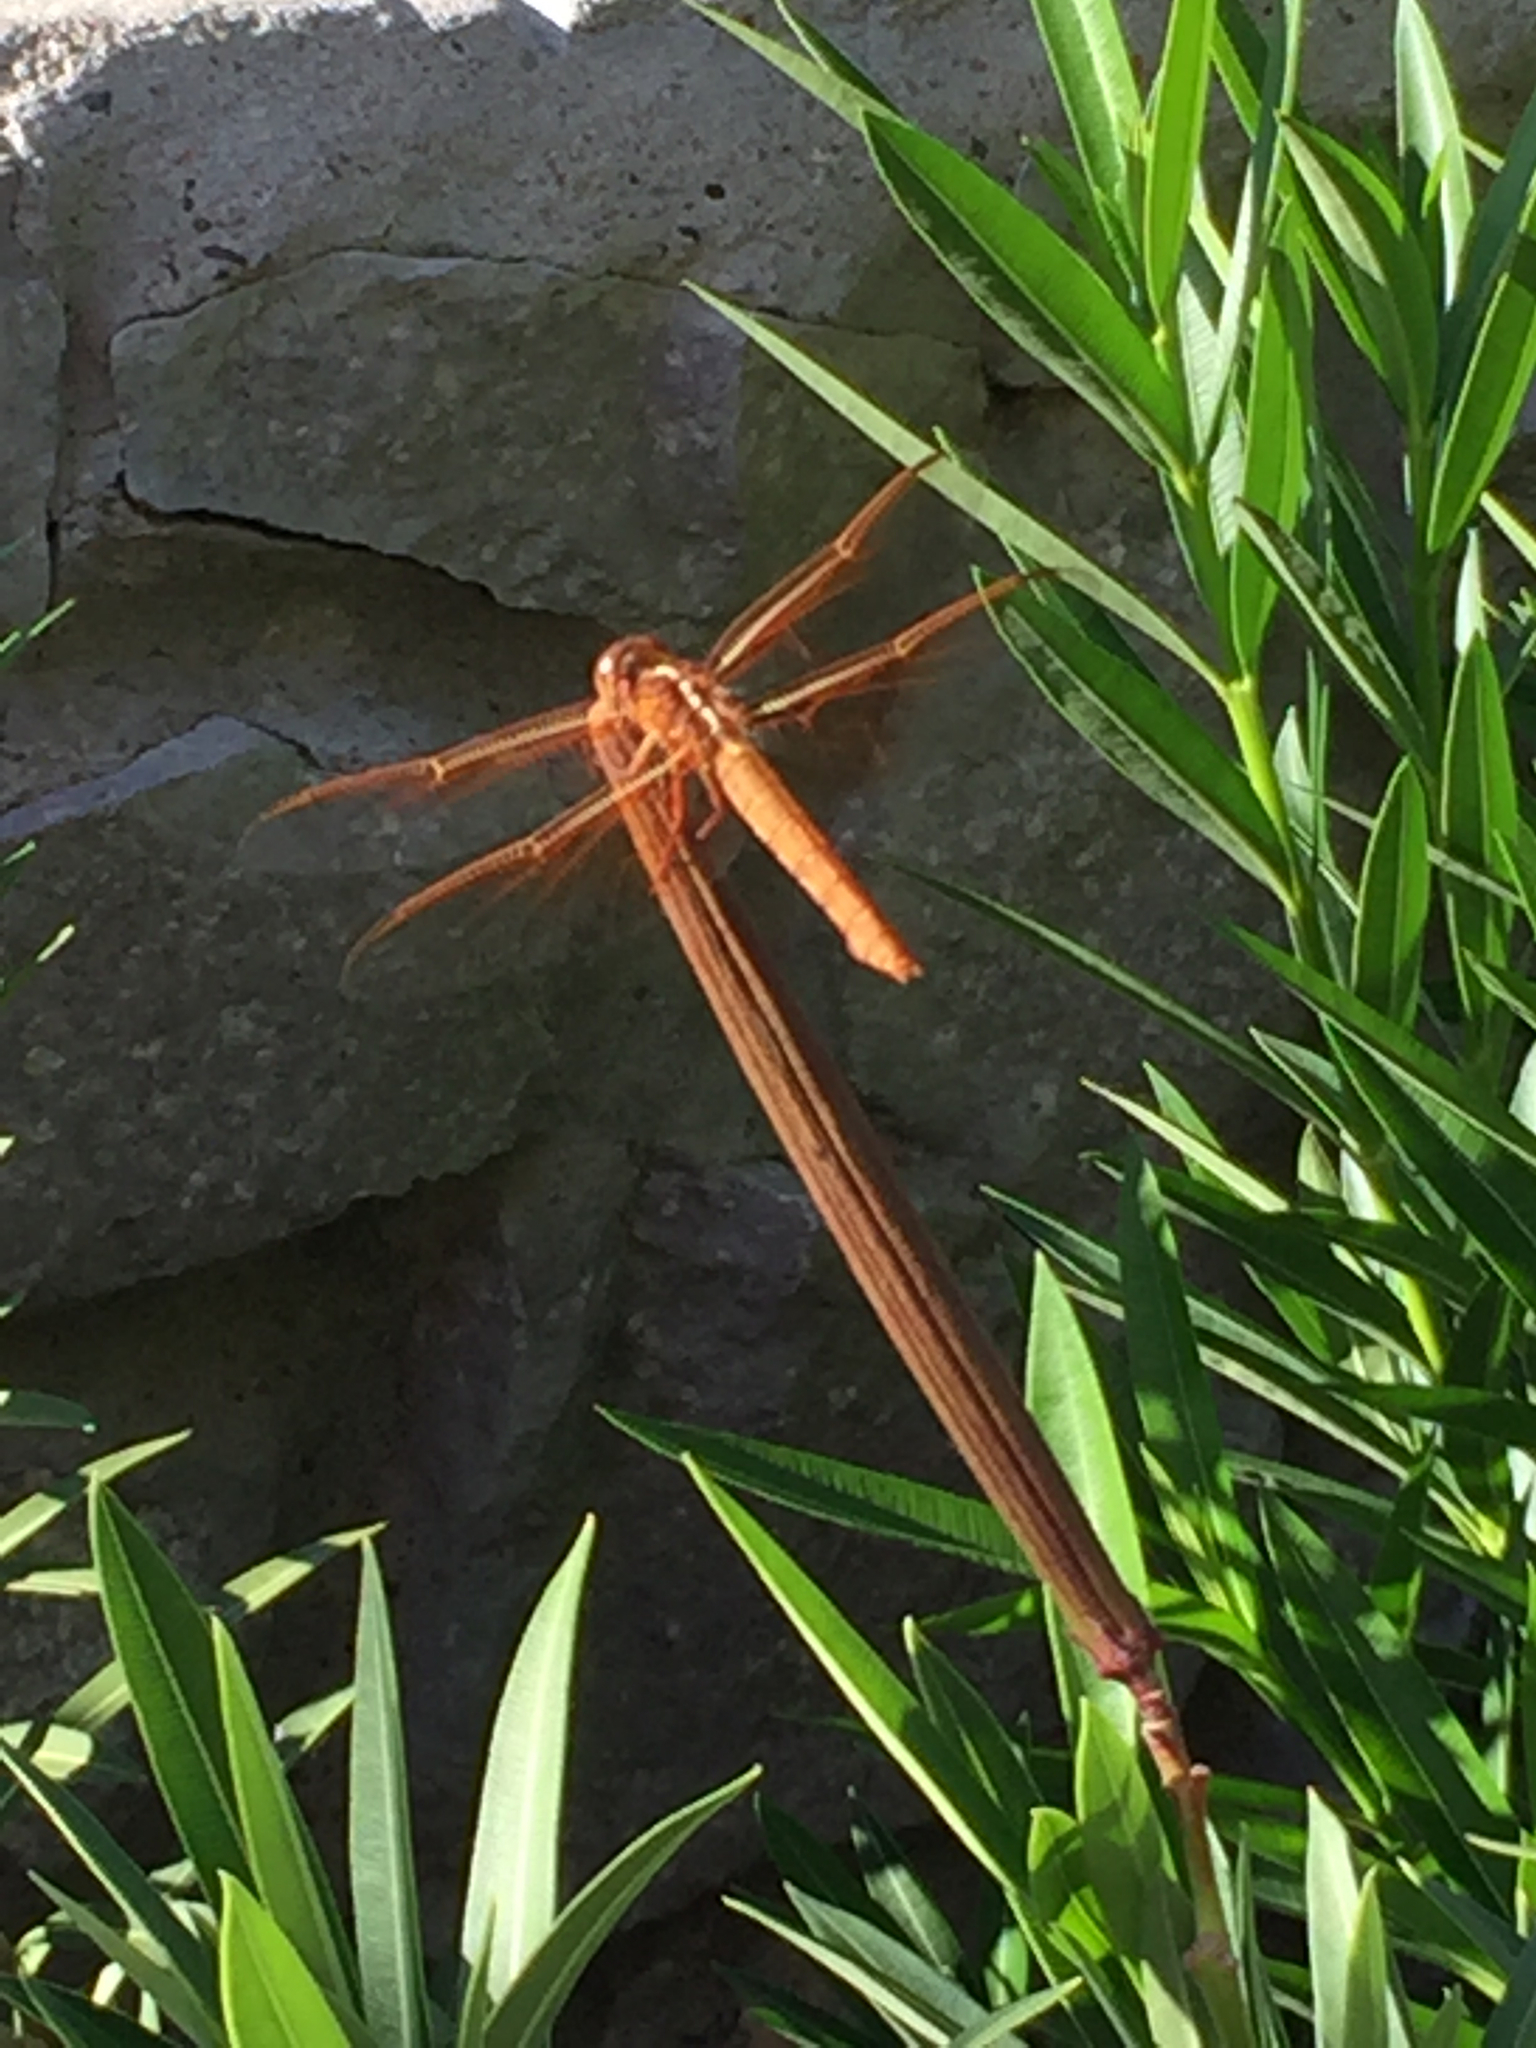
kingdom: Animalia
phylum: Arthropoda
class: Insecta
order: Odonata
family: Libellulidae
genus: Libellula
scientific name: Libellula saturata
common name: Flame skimmer
